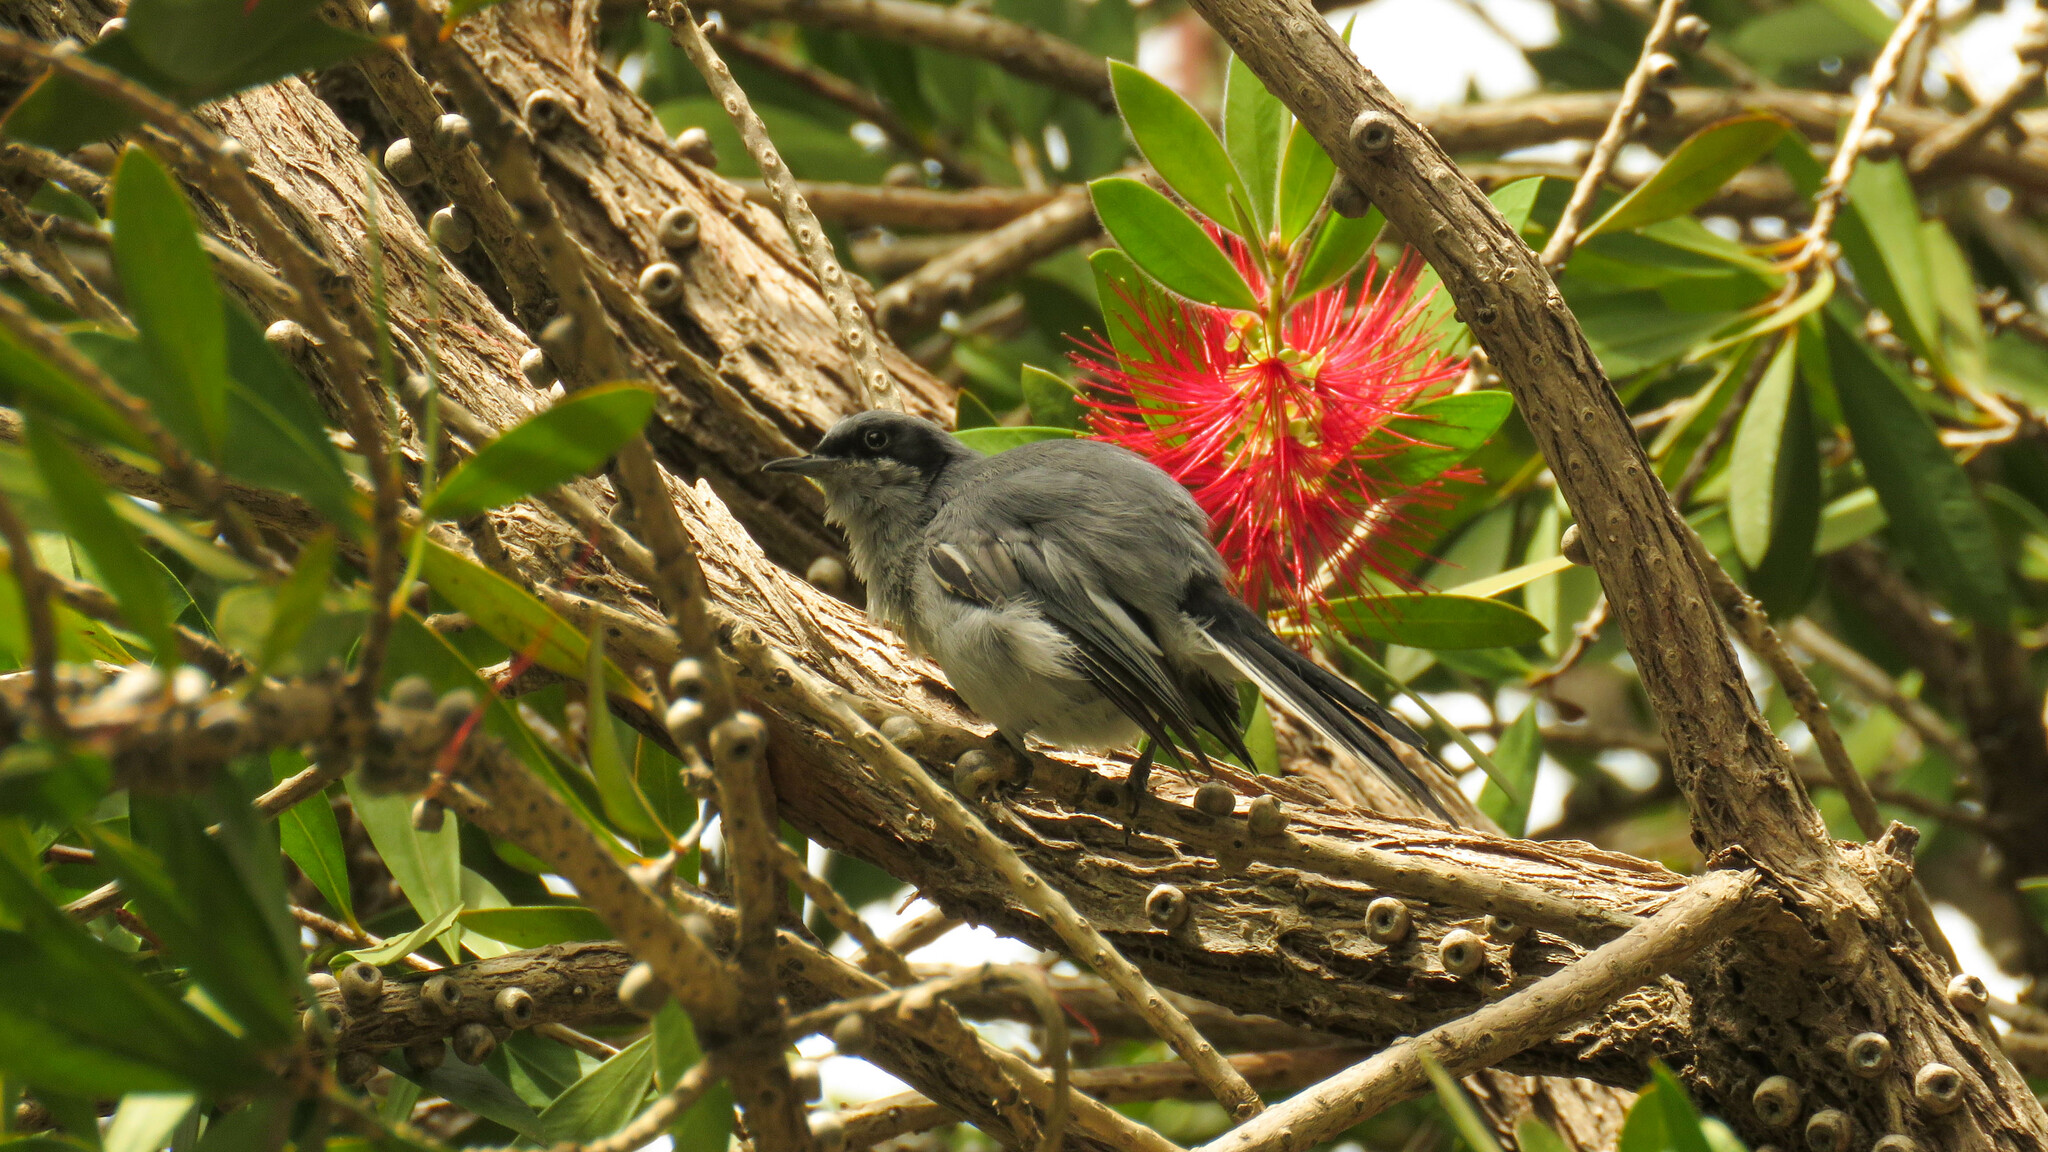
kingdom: Animalia
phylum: Chordata
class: Aves
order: Passeriformes
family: Polioptilidae
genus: Polioptila
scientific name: Polioptila dumicola
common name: Masked gnatcatcher
